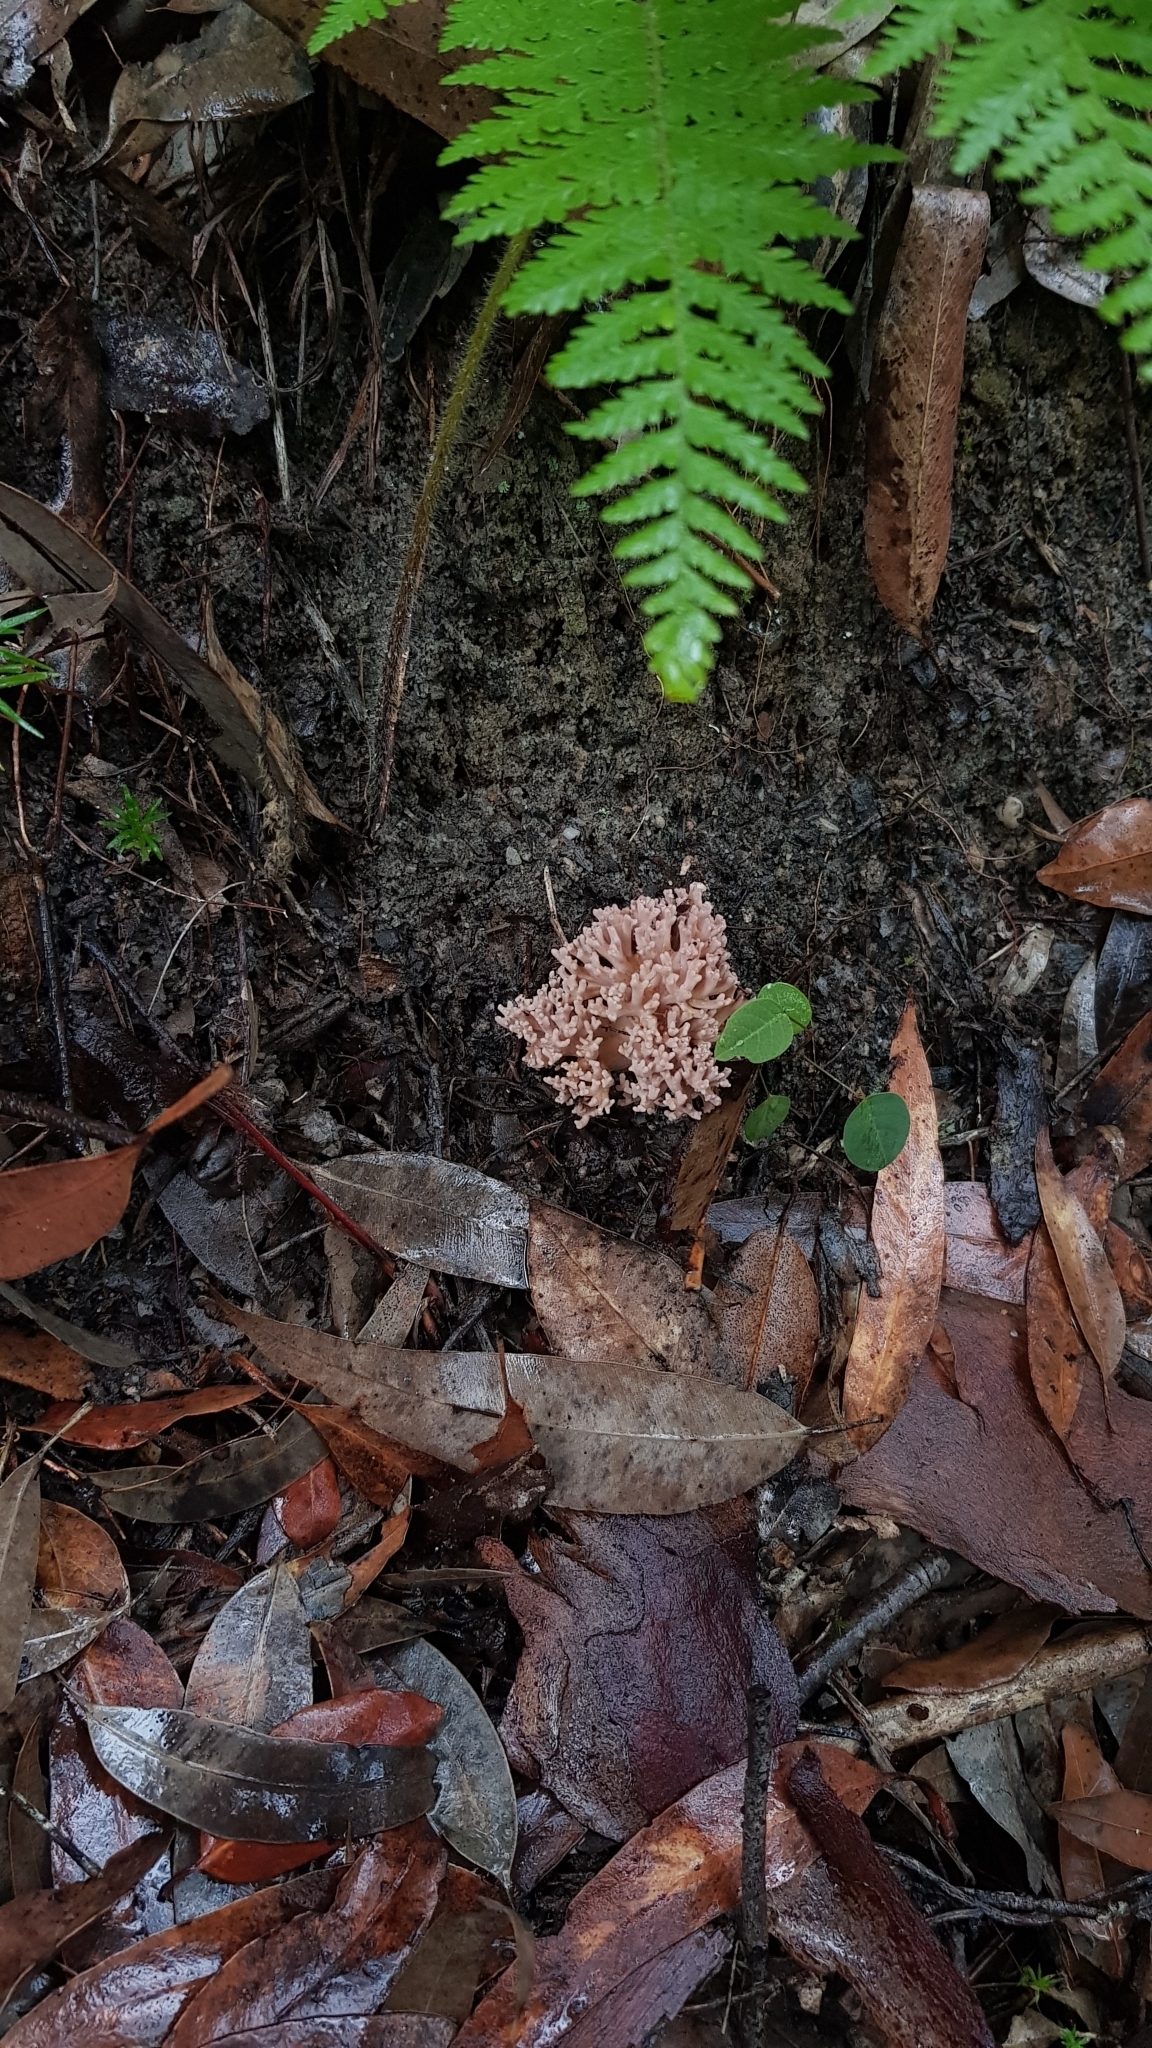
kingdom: Fungi
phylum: Basidiomycota
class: Agaricomycetes
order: Agaricales
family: Clavariaceae
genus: Clavaria
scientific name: Clavaria versatilis
